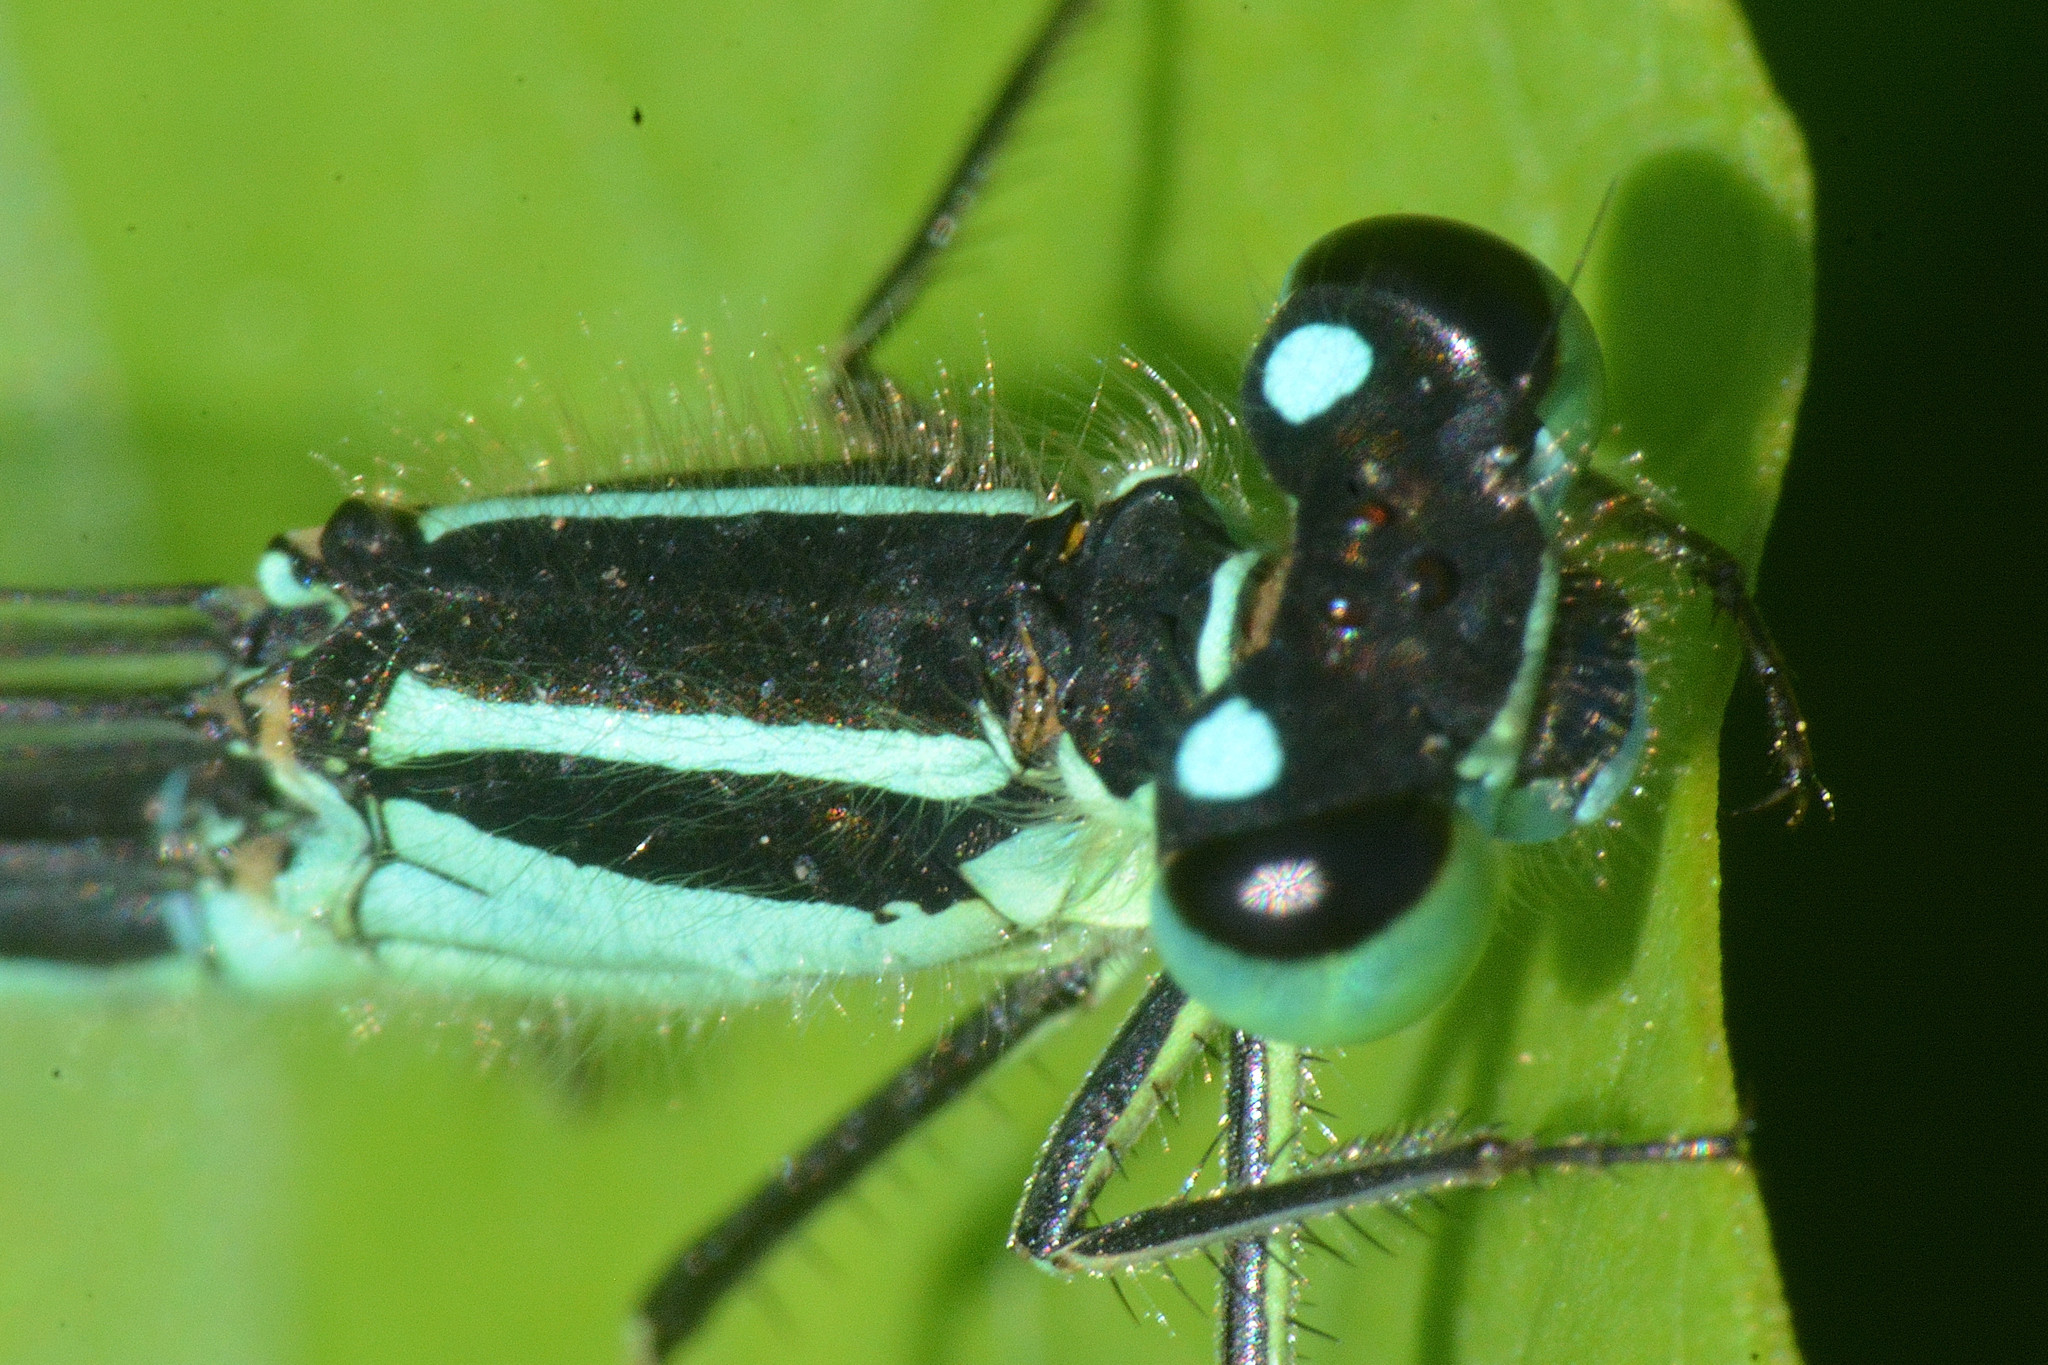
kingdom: Animalia
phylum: Arthropoda
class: Insecta
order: Odonata
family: Coenagrionidae
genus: Ischnura
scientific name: Ischnura elegans
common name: Blue-tailed damselfly
